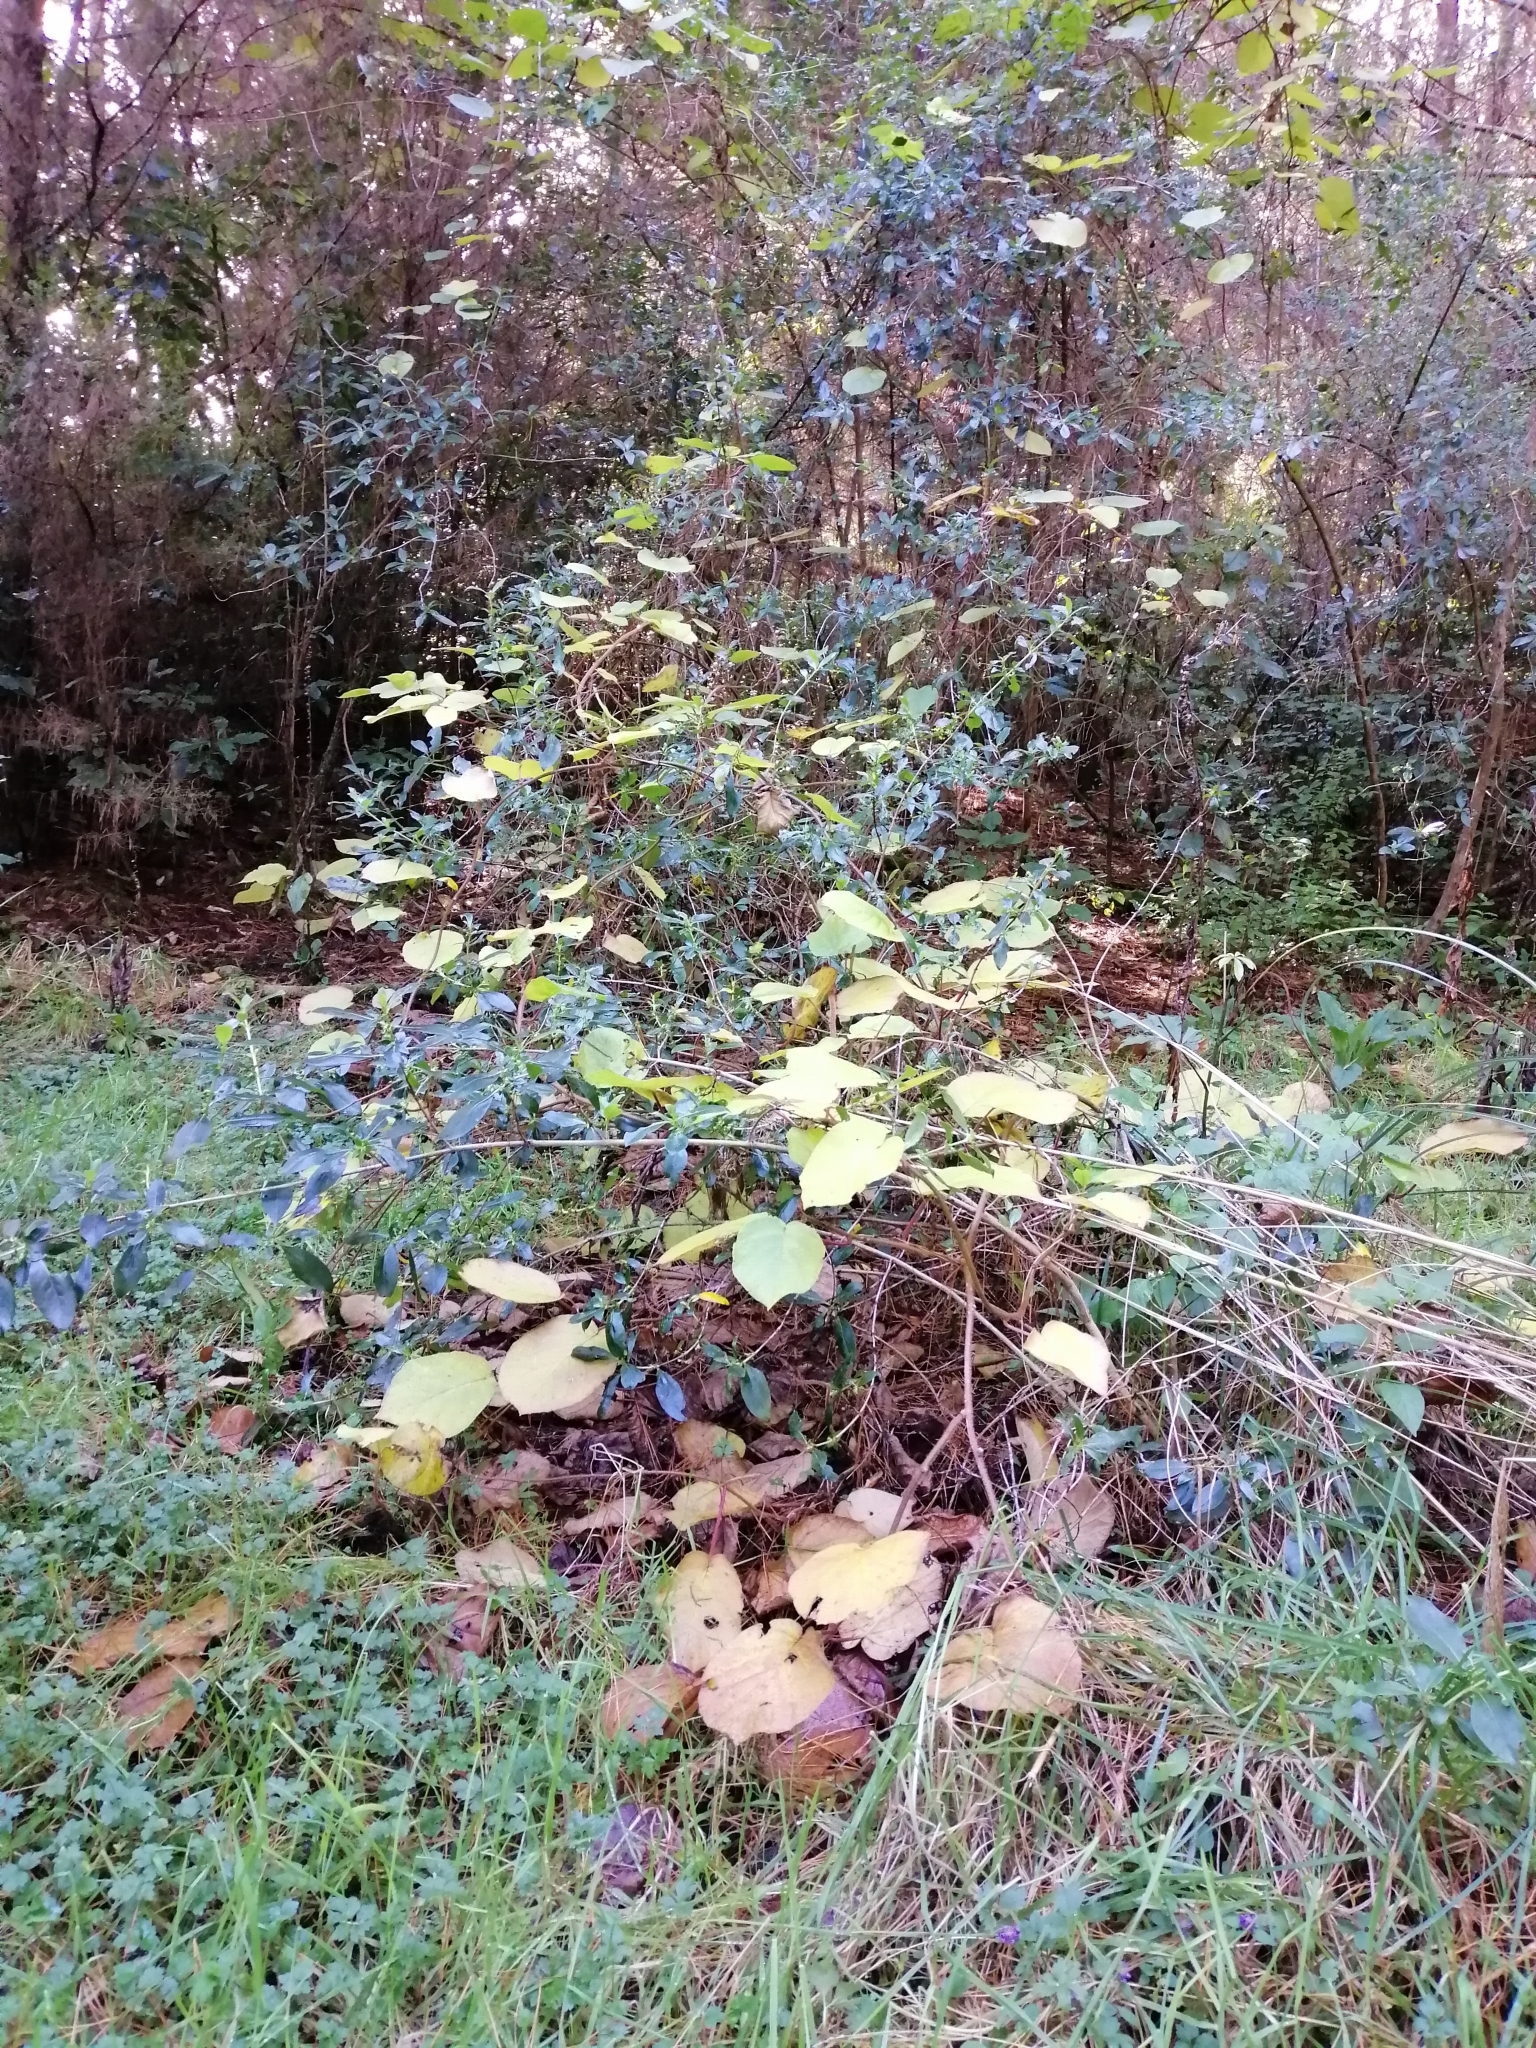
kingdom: Plantae
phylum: Tracheophyta
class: Magnoliopsida
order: Ericales
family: Actinidiaceae
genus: Actinidia
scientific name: Actinidia chinensis
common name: Kiwi
